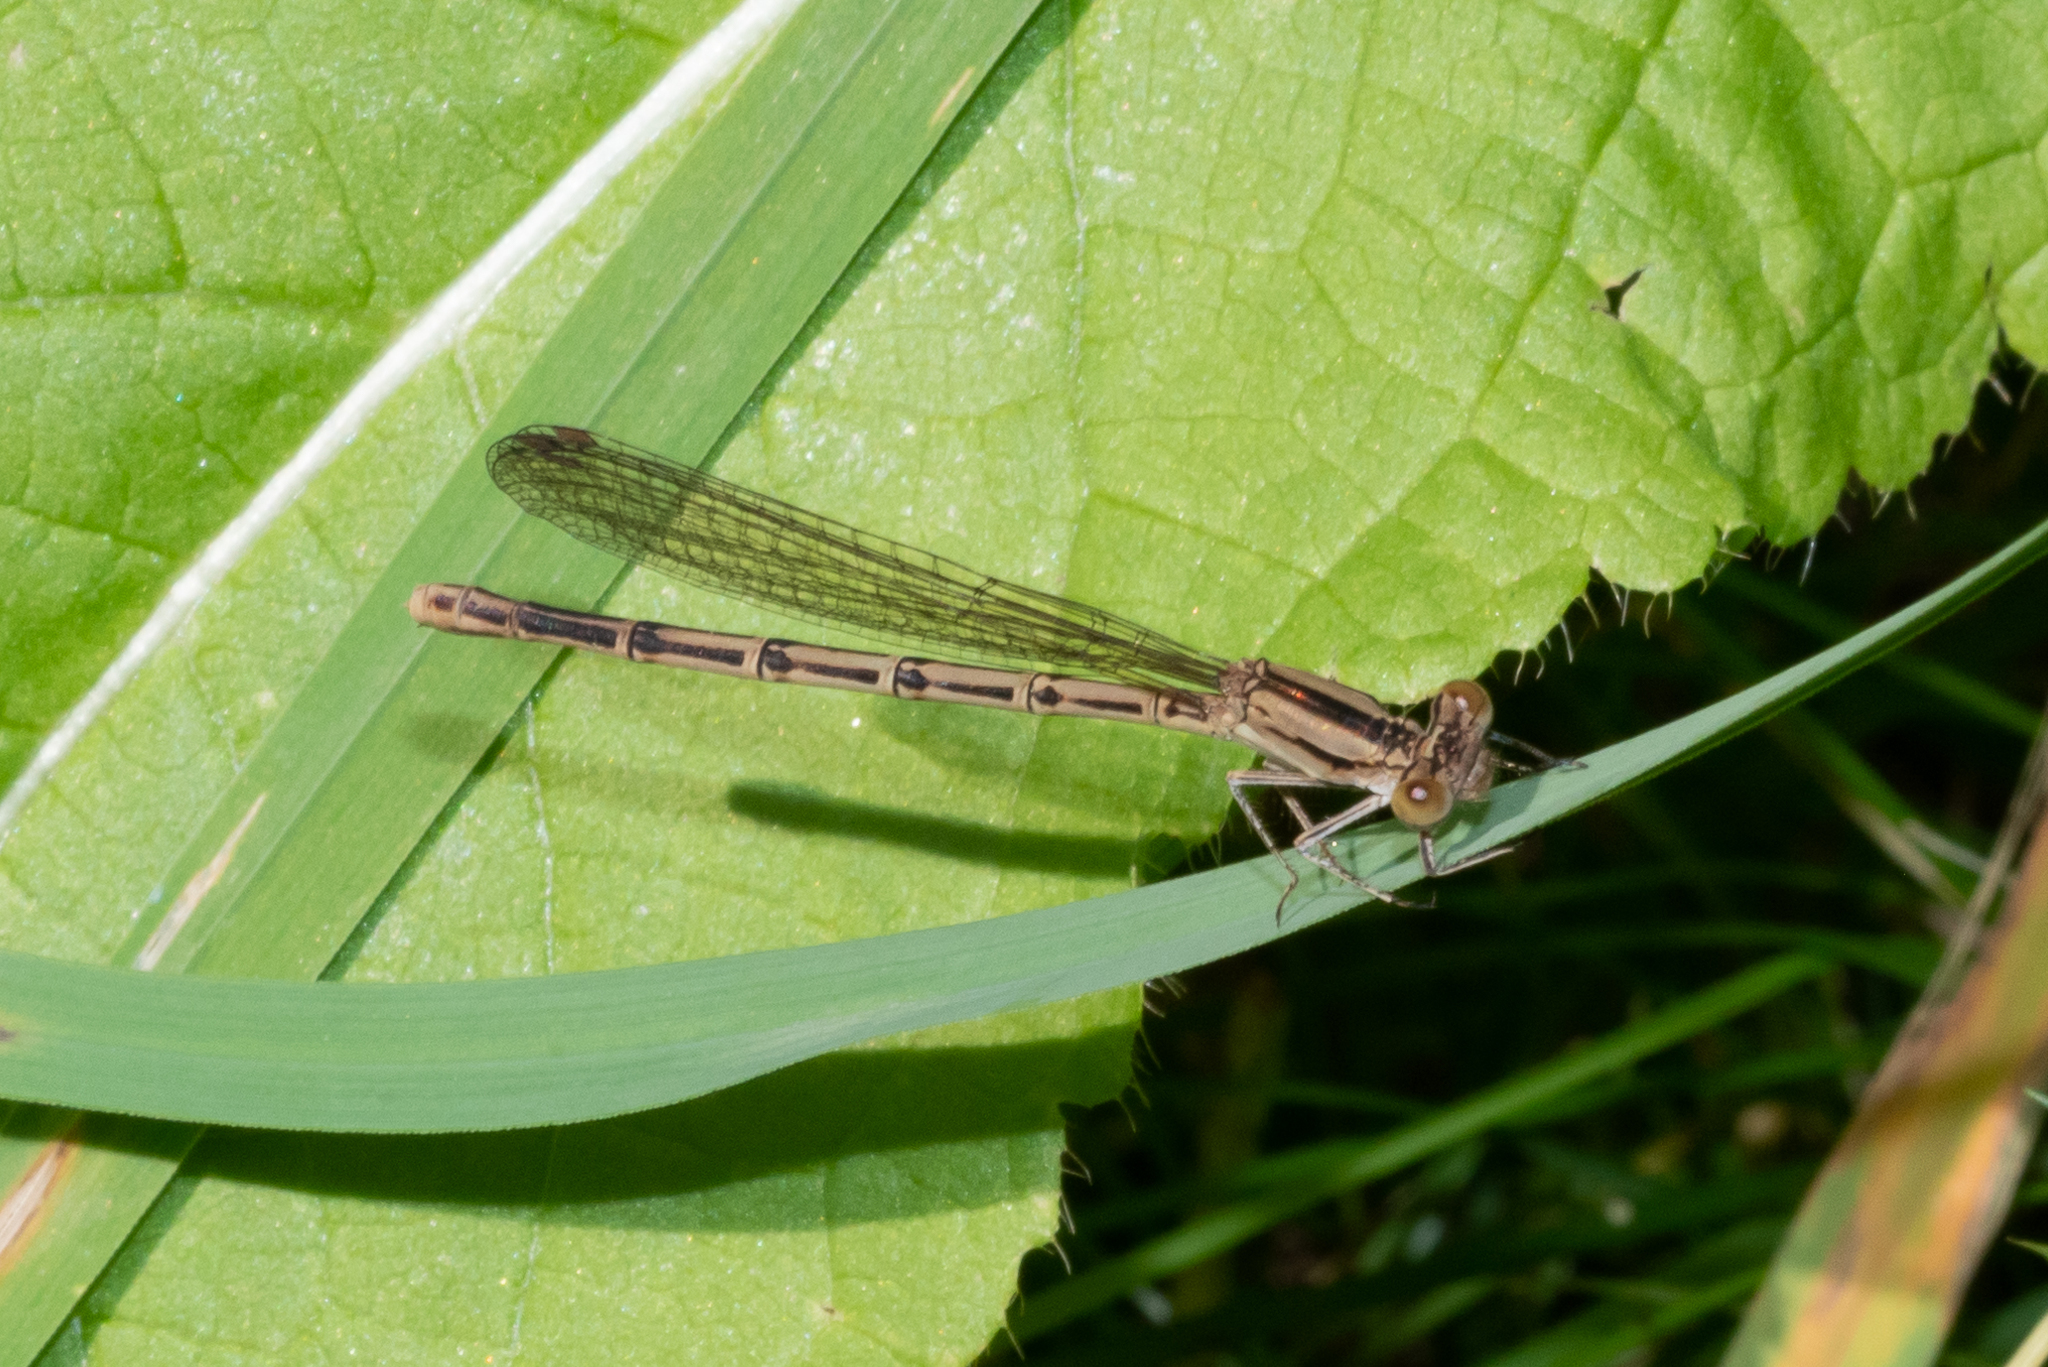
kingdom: Animalia
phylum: Arthropoda
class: Insecta
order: Odonata
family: Coenagrionidae
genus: Argia
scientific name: Argia fumipennis
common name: Variable dancer
